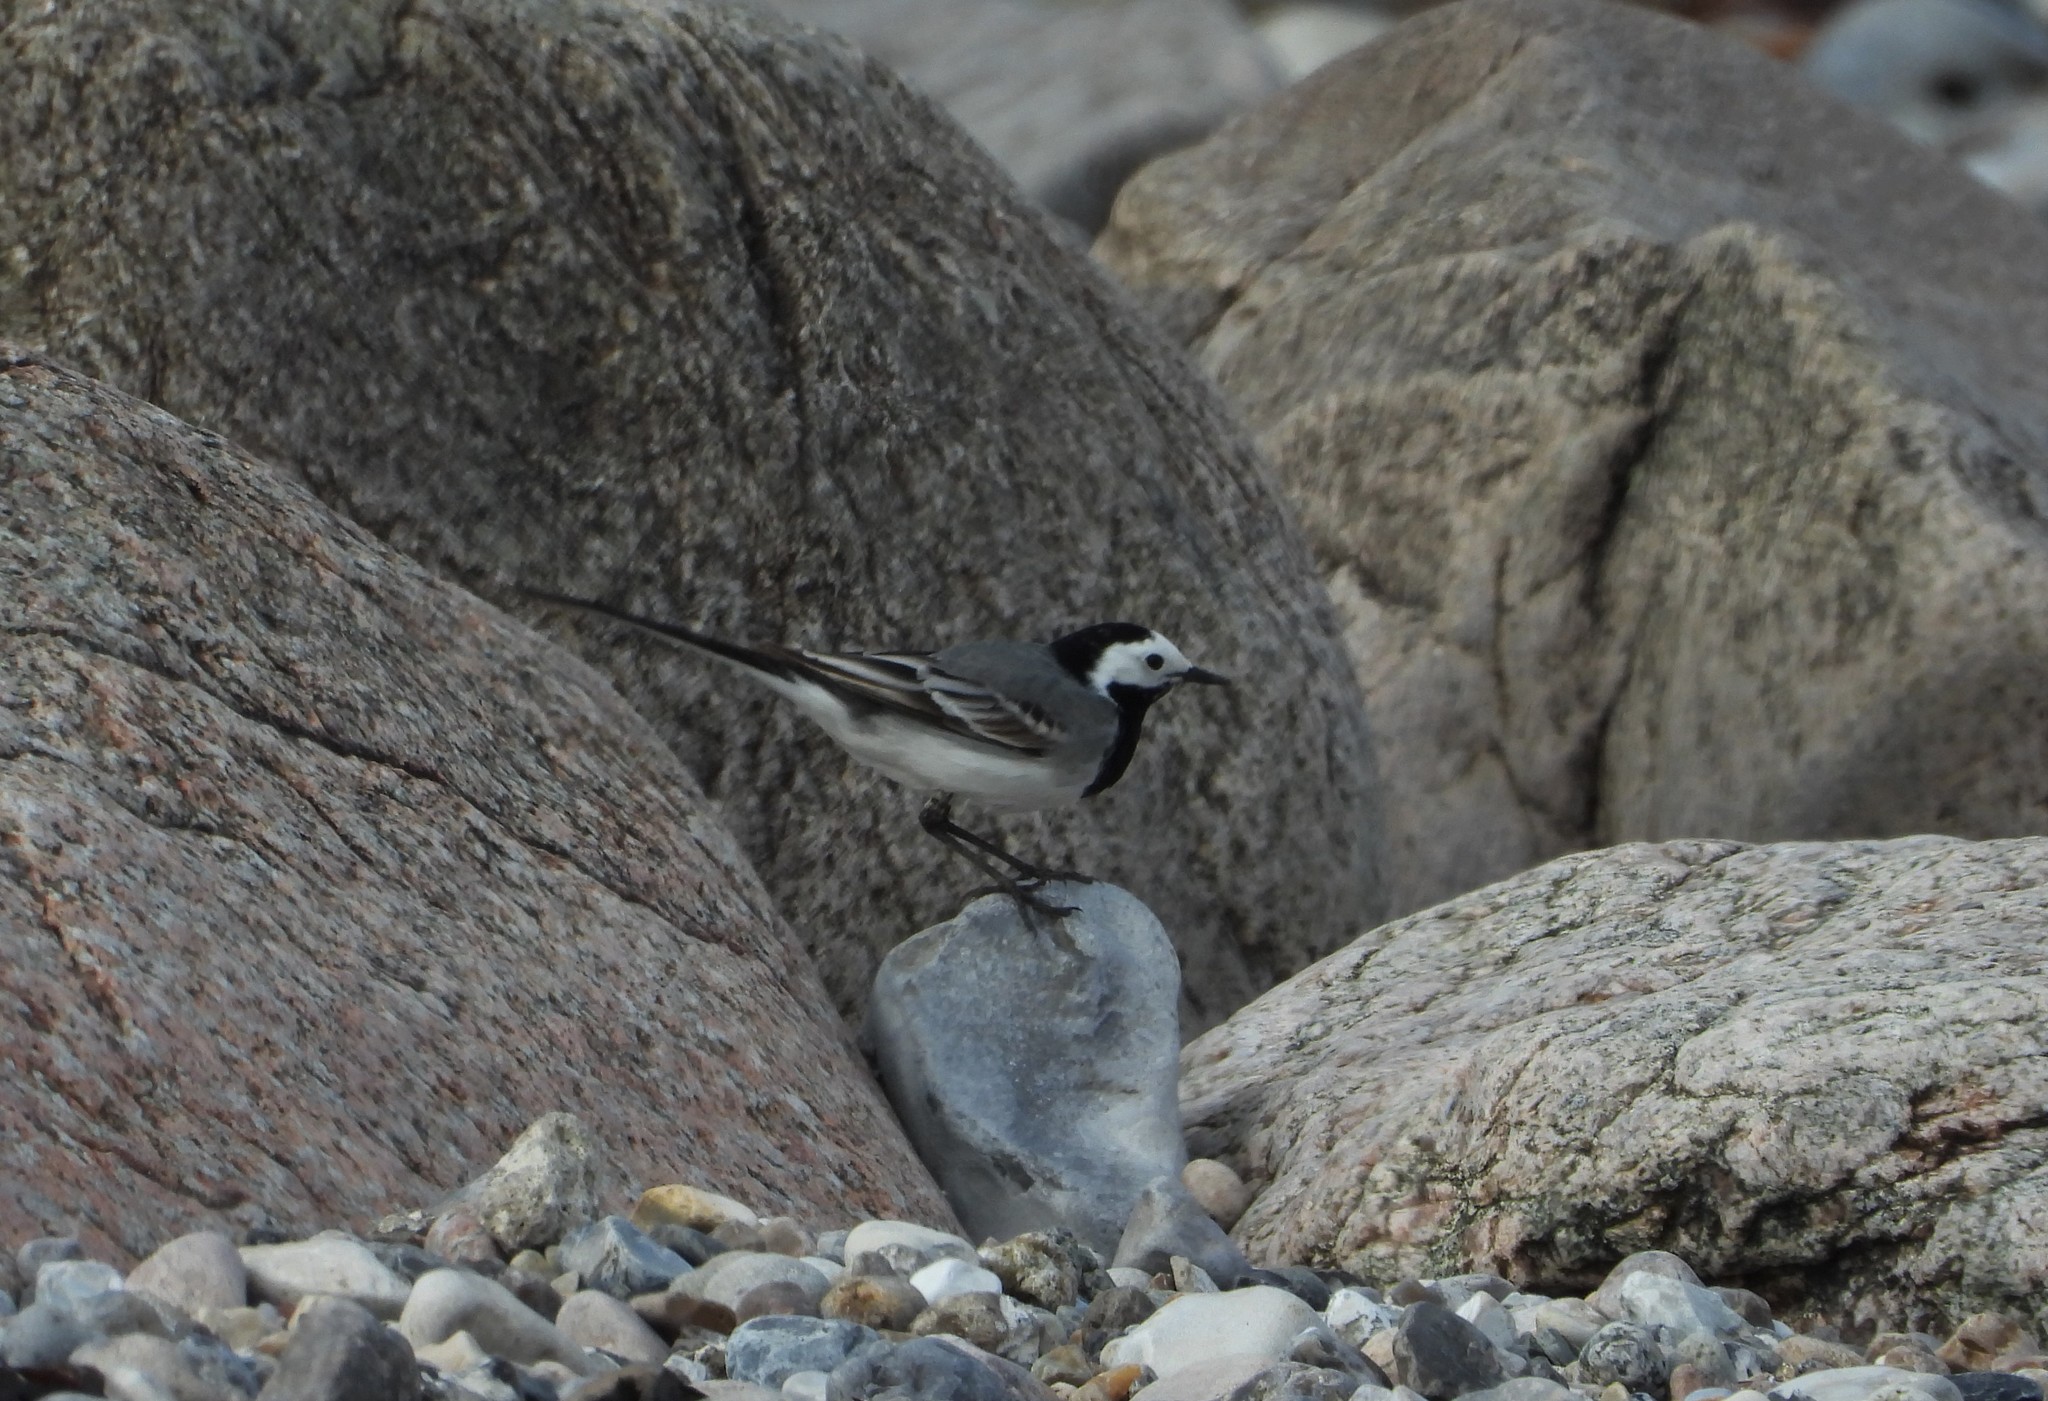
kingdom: Animalia
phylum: Chordata
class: Aves
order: Passeriformes
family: Motacillidae
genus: Motacilla
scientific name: Motacilla alba
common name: White wagtail
